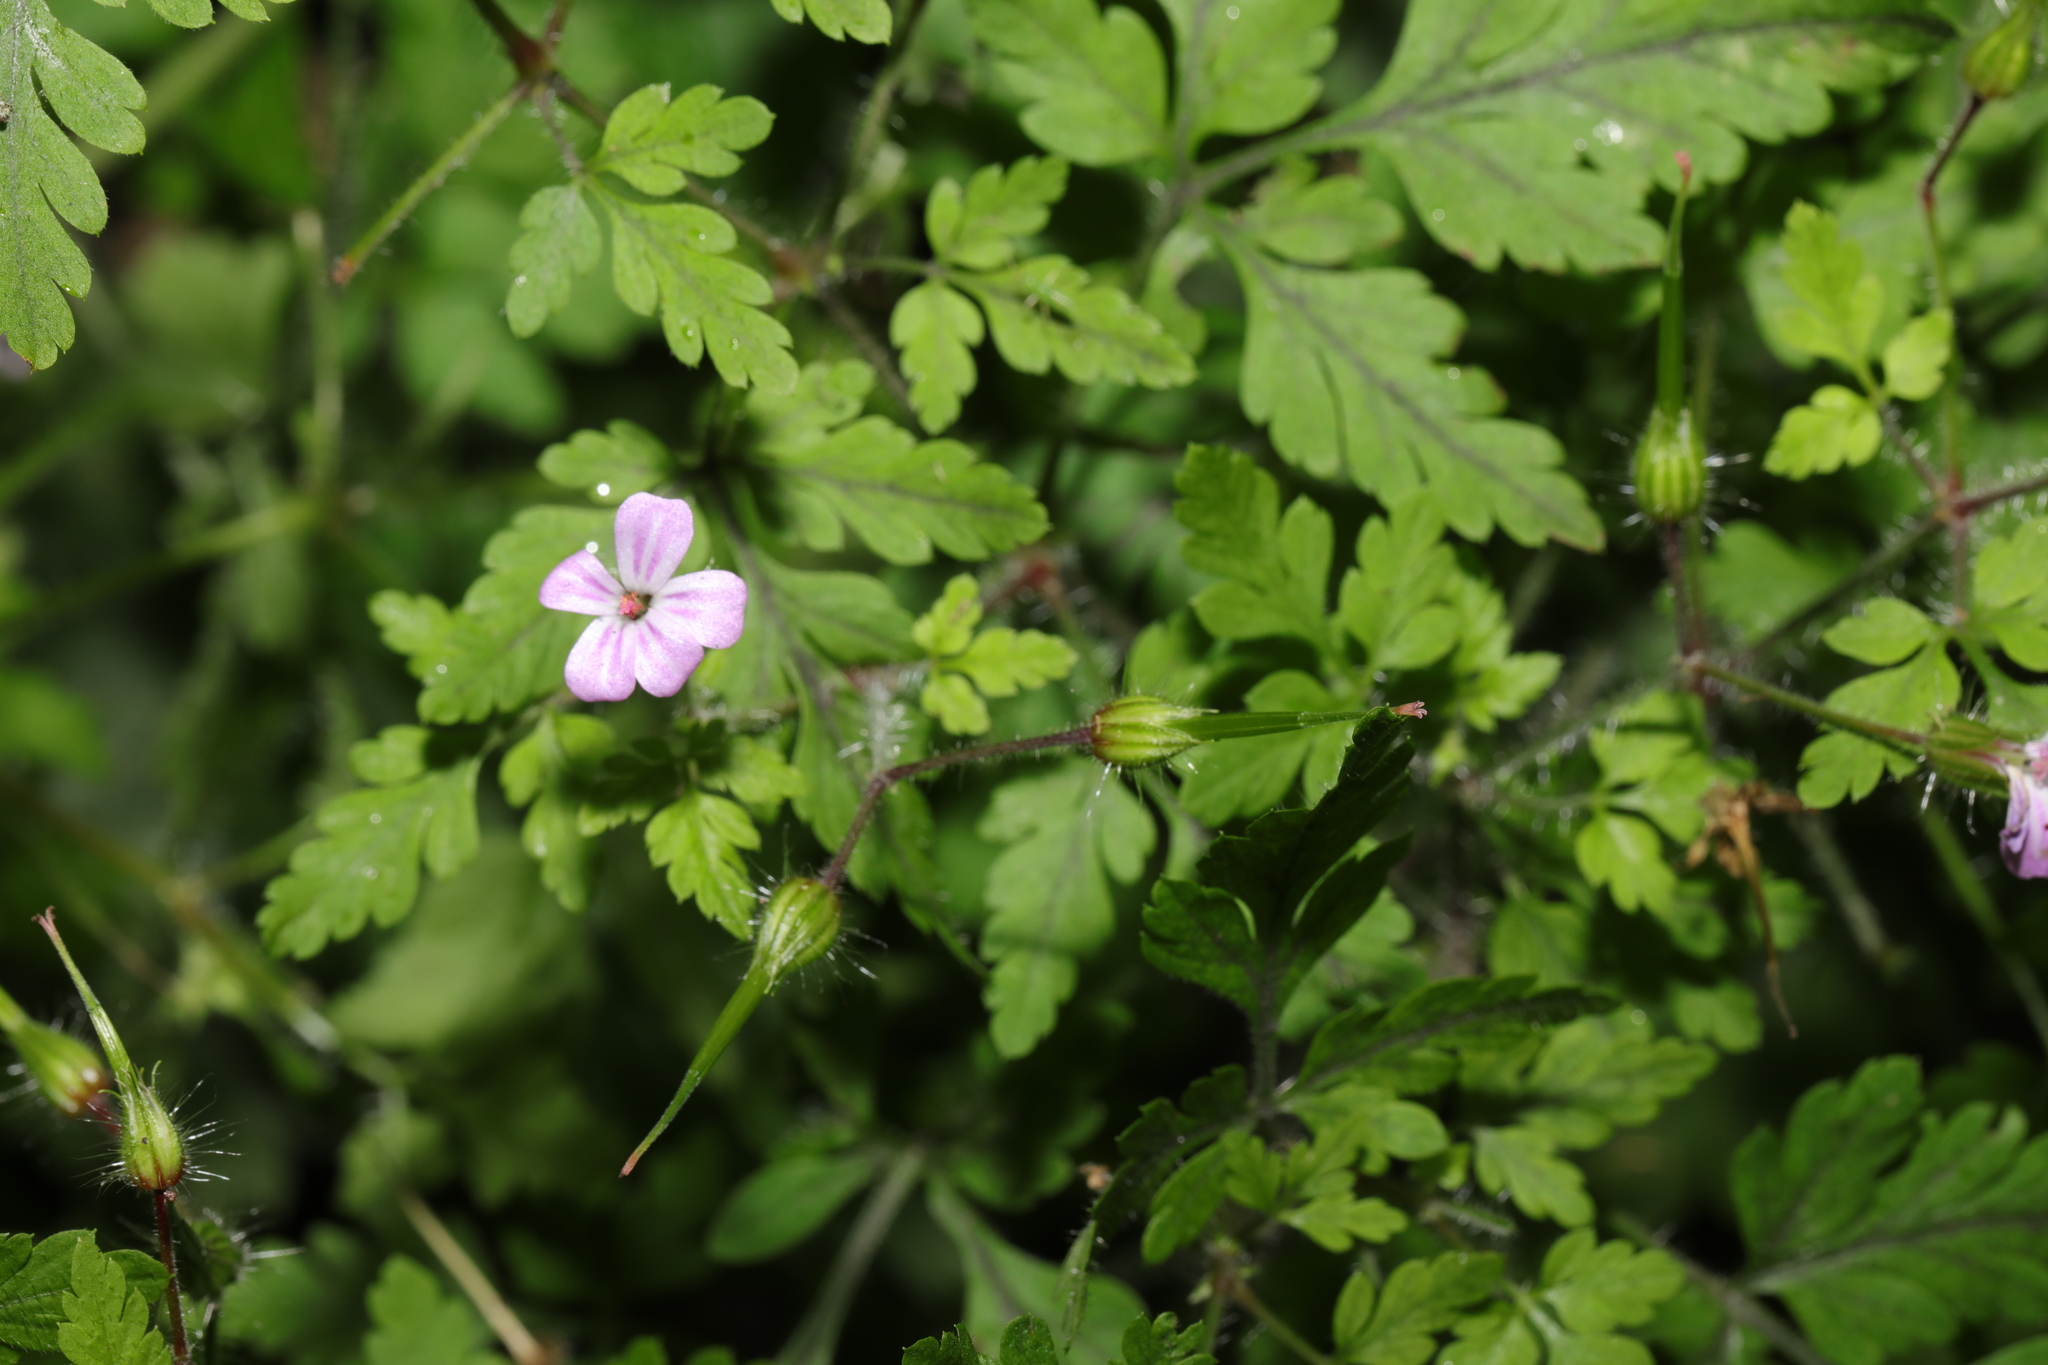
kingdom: Plantae
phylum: Tracheophyta
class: Magnoliopsida
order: Geraniales
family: Geraniaceae
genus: Geranium
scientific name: Geranium robertianum
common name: Herb-robert
